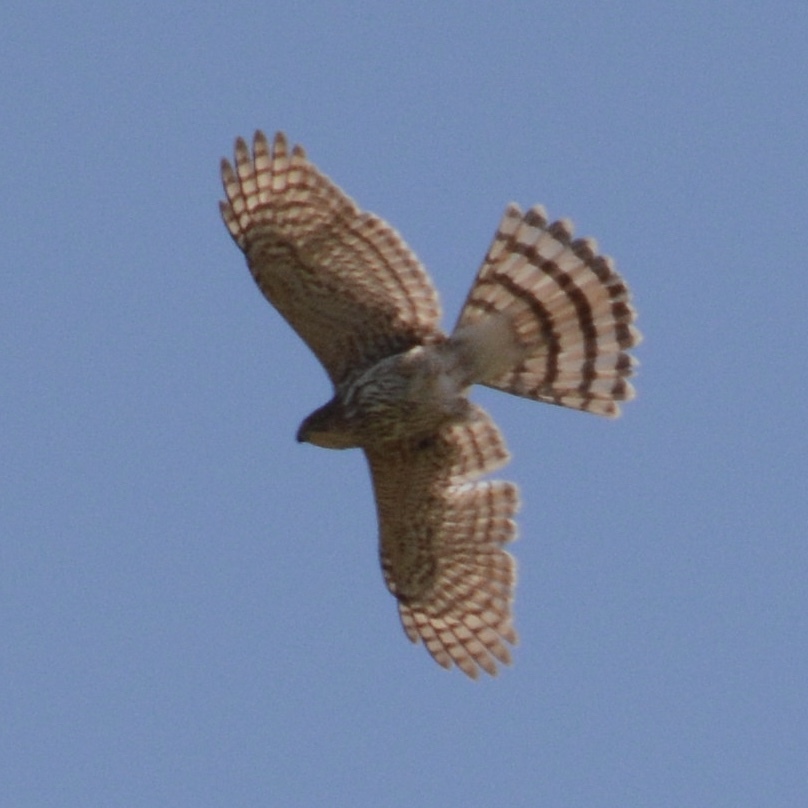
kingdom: Animalia
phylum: Chordata
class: Aves
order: Accipitriformes
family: Accipitridae
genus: Accipiter
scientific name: Accipiter cooperii
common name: Cooper's hawk
